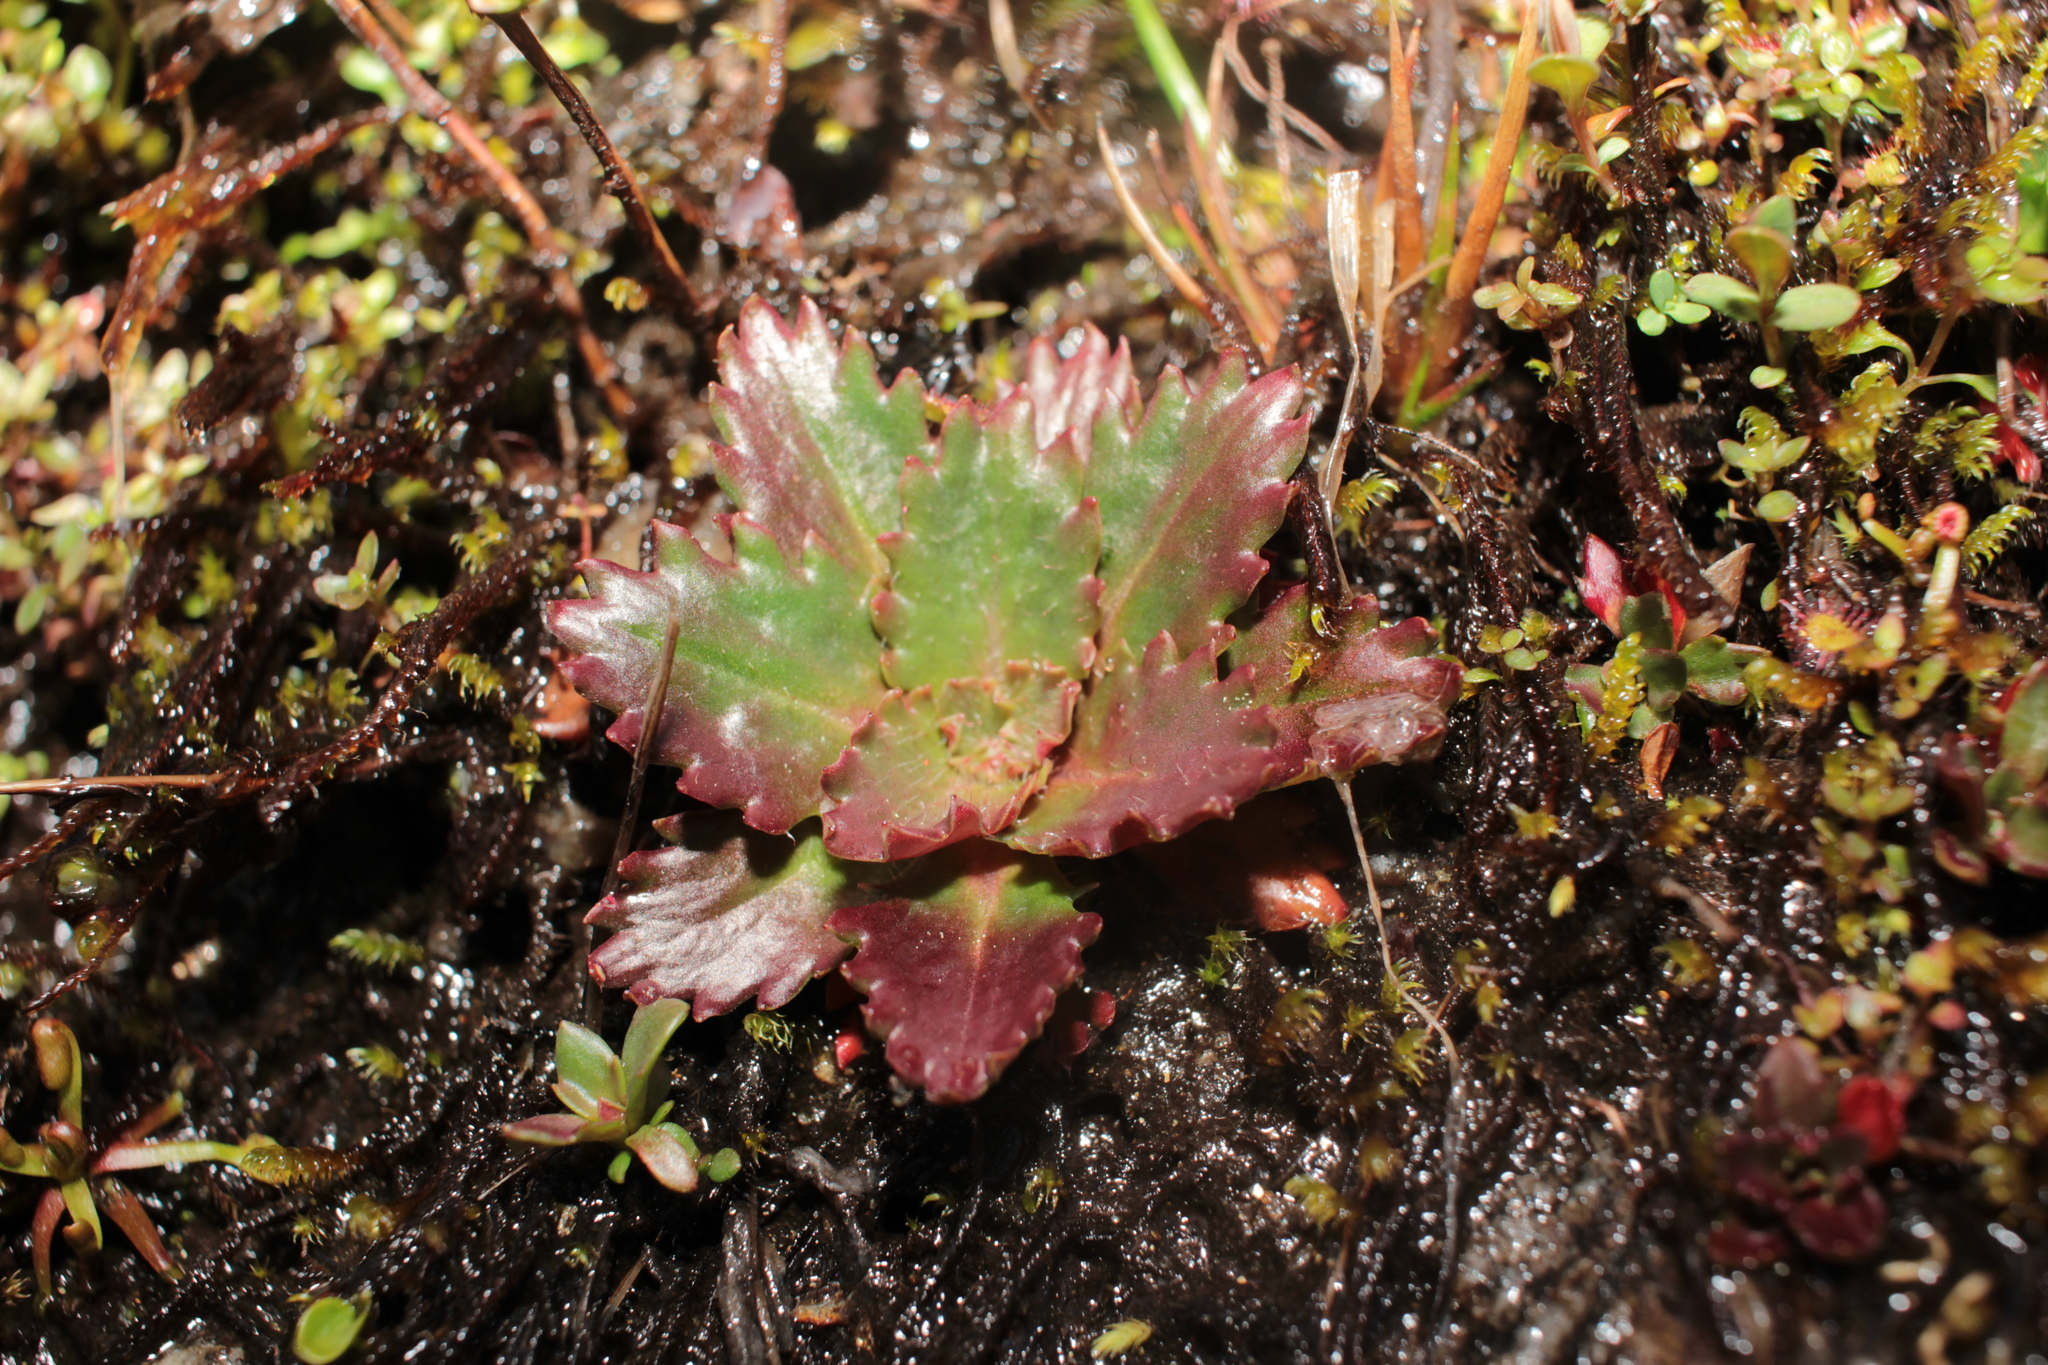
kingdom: Plantae
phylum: Tracheophyta
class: Magnoliopsida
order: Saxifragales
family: Saxifragaceae
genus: Micranthes
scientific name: Micranthes petiolaris
